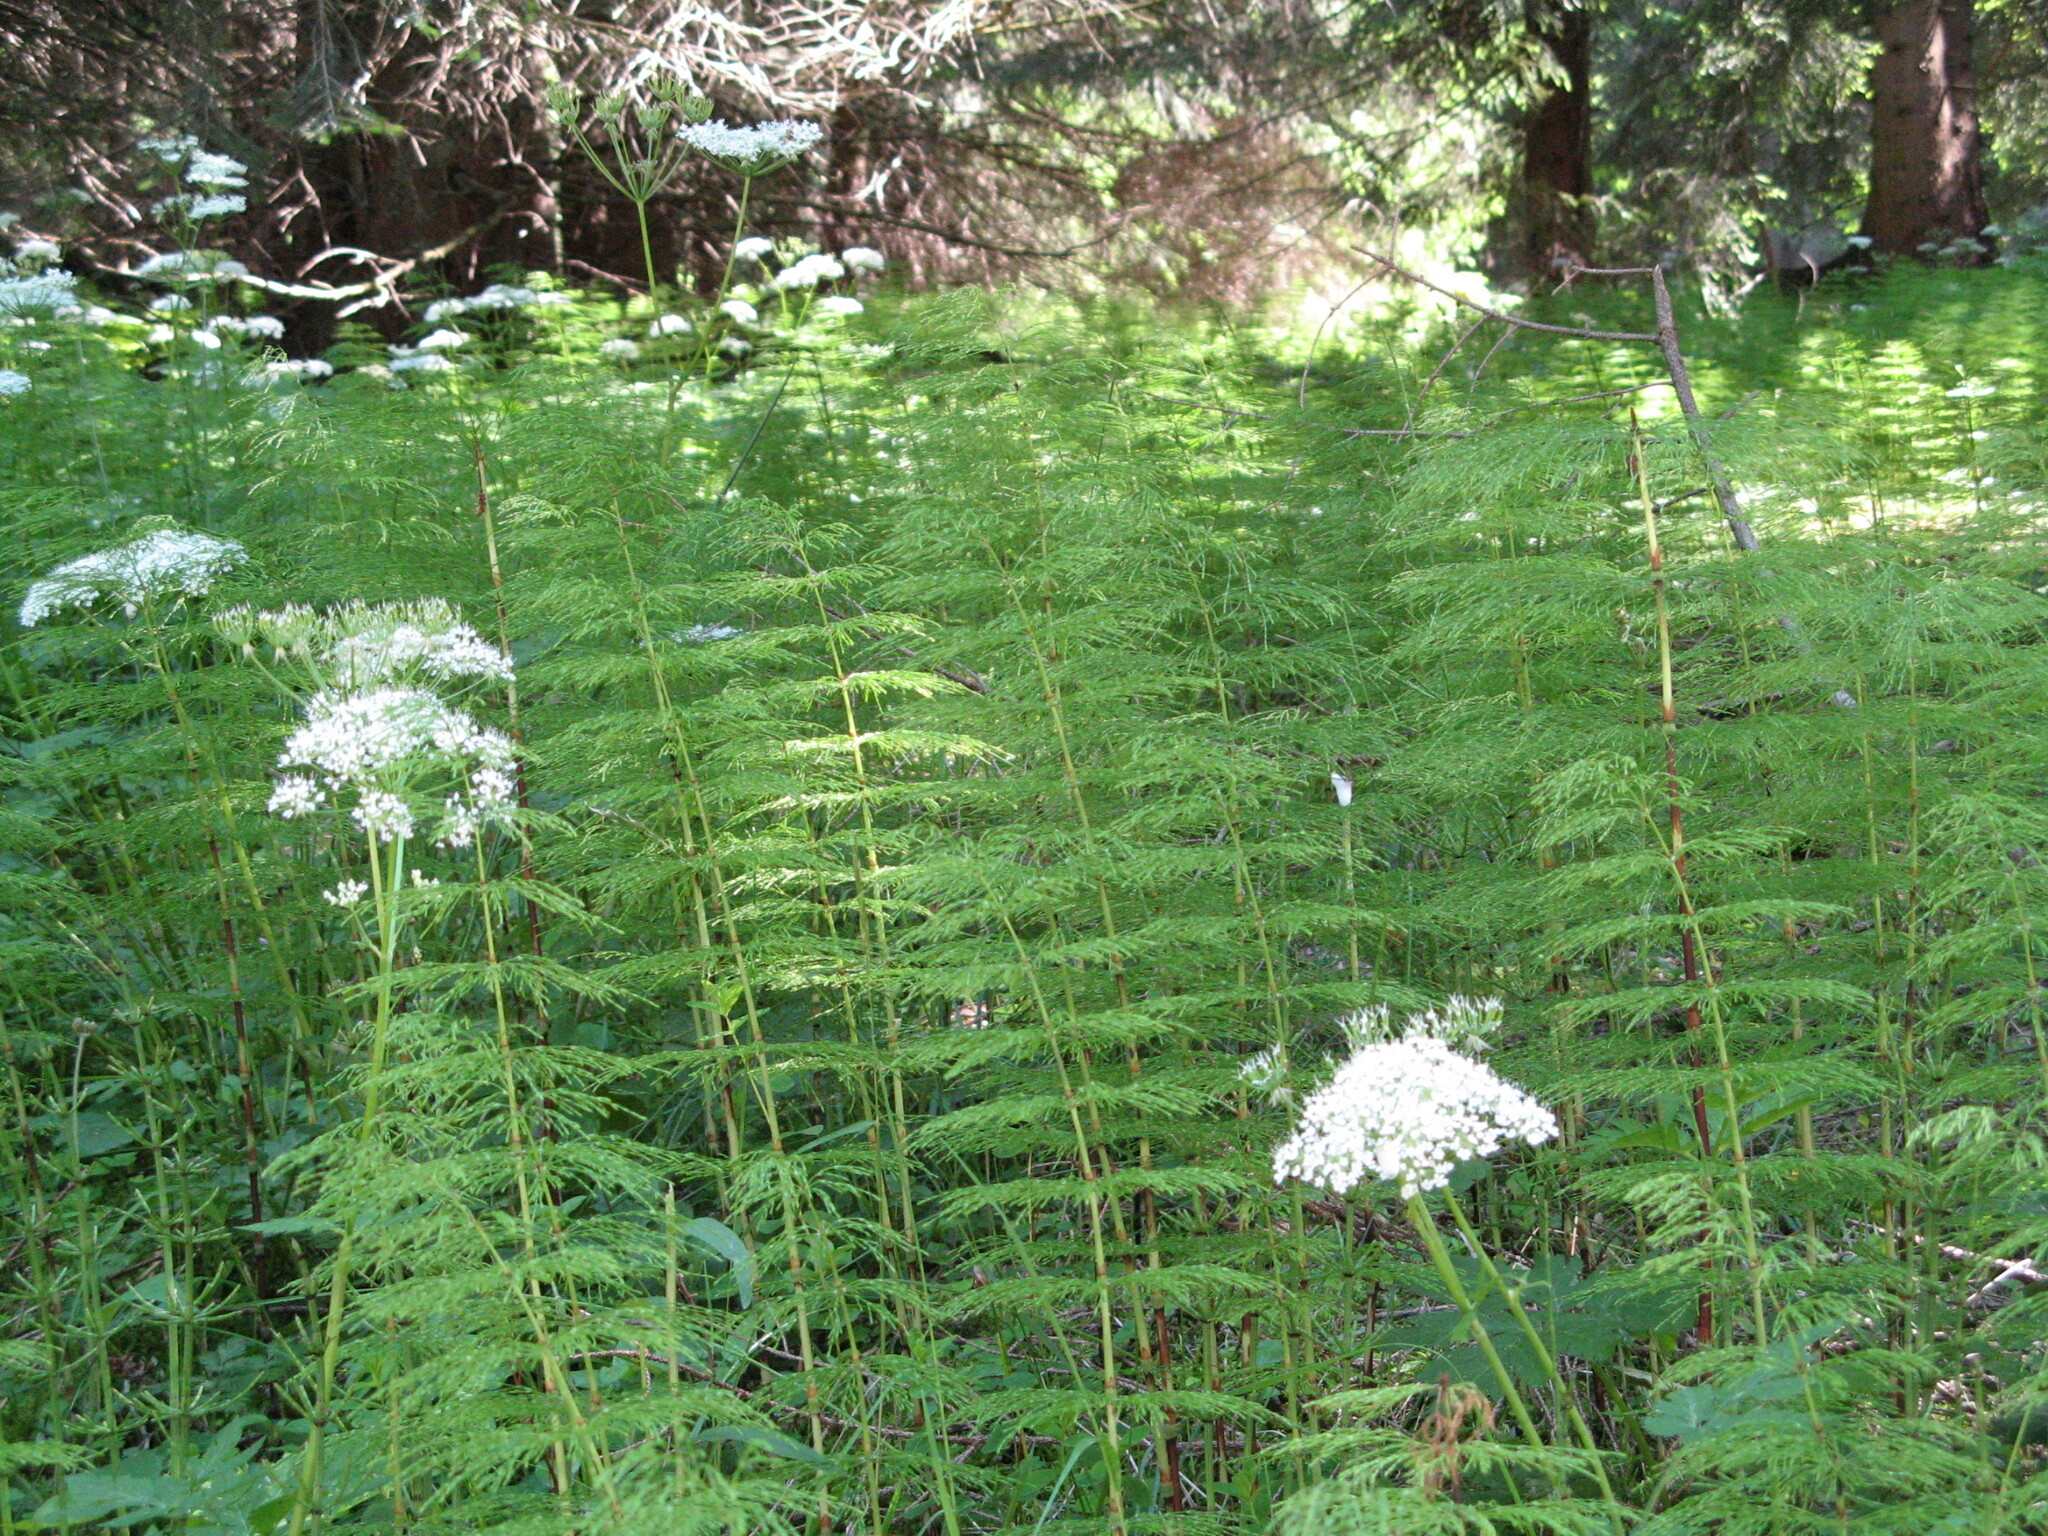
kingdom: Plantae
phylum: Tracheophyta
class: Polypodiopsida
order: Equisetales
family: Equisetaceae
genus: Equisetum
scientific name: Equisetum sylvaticum
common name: Wood horsetail
